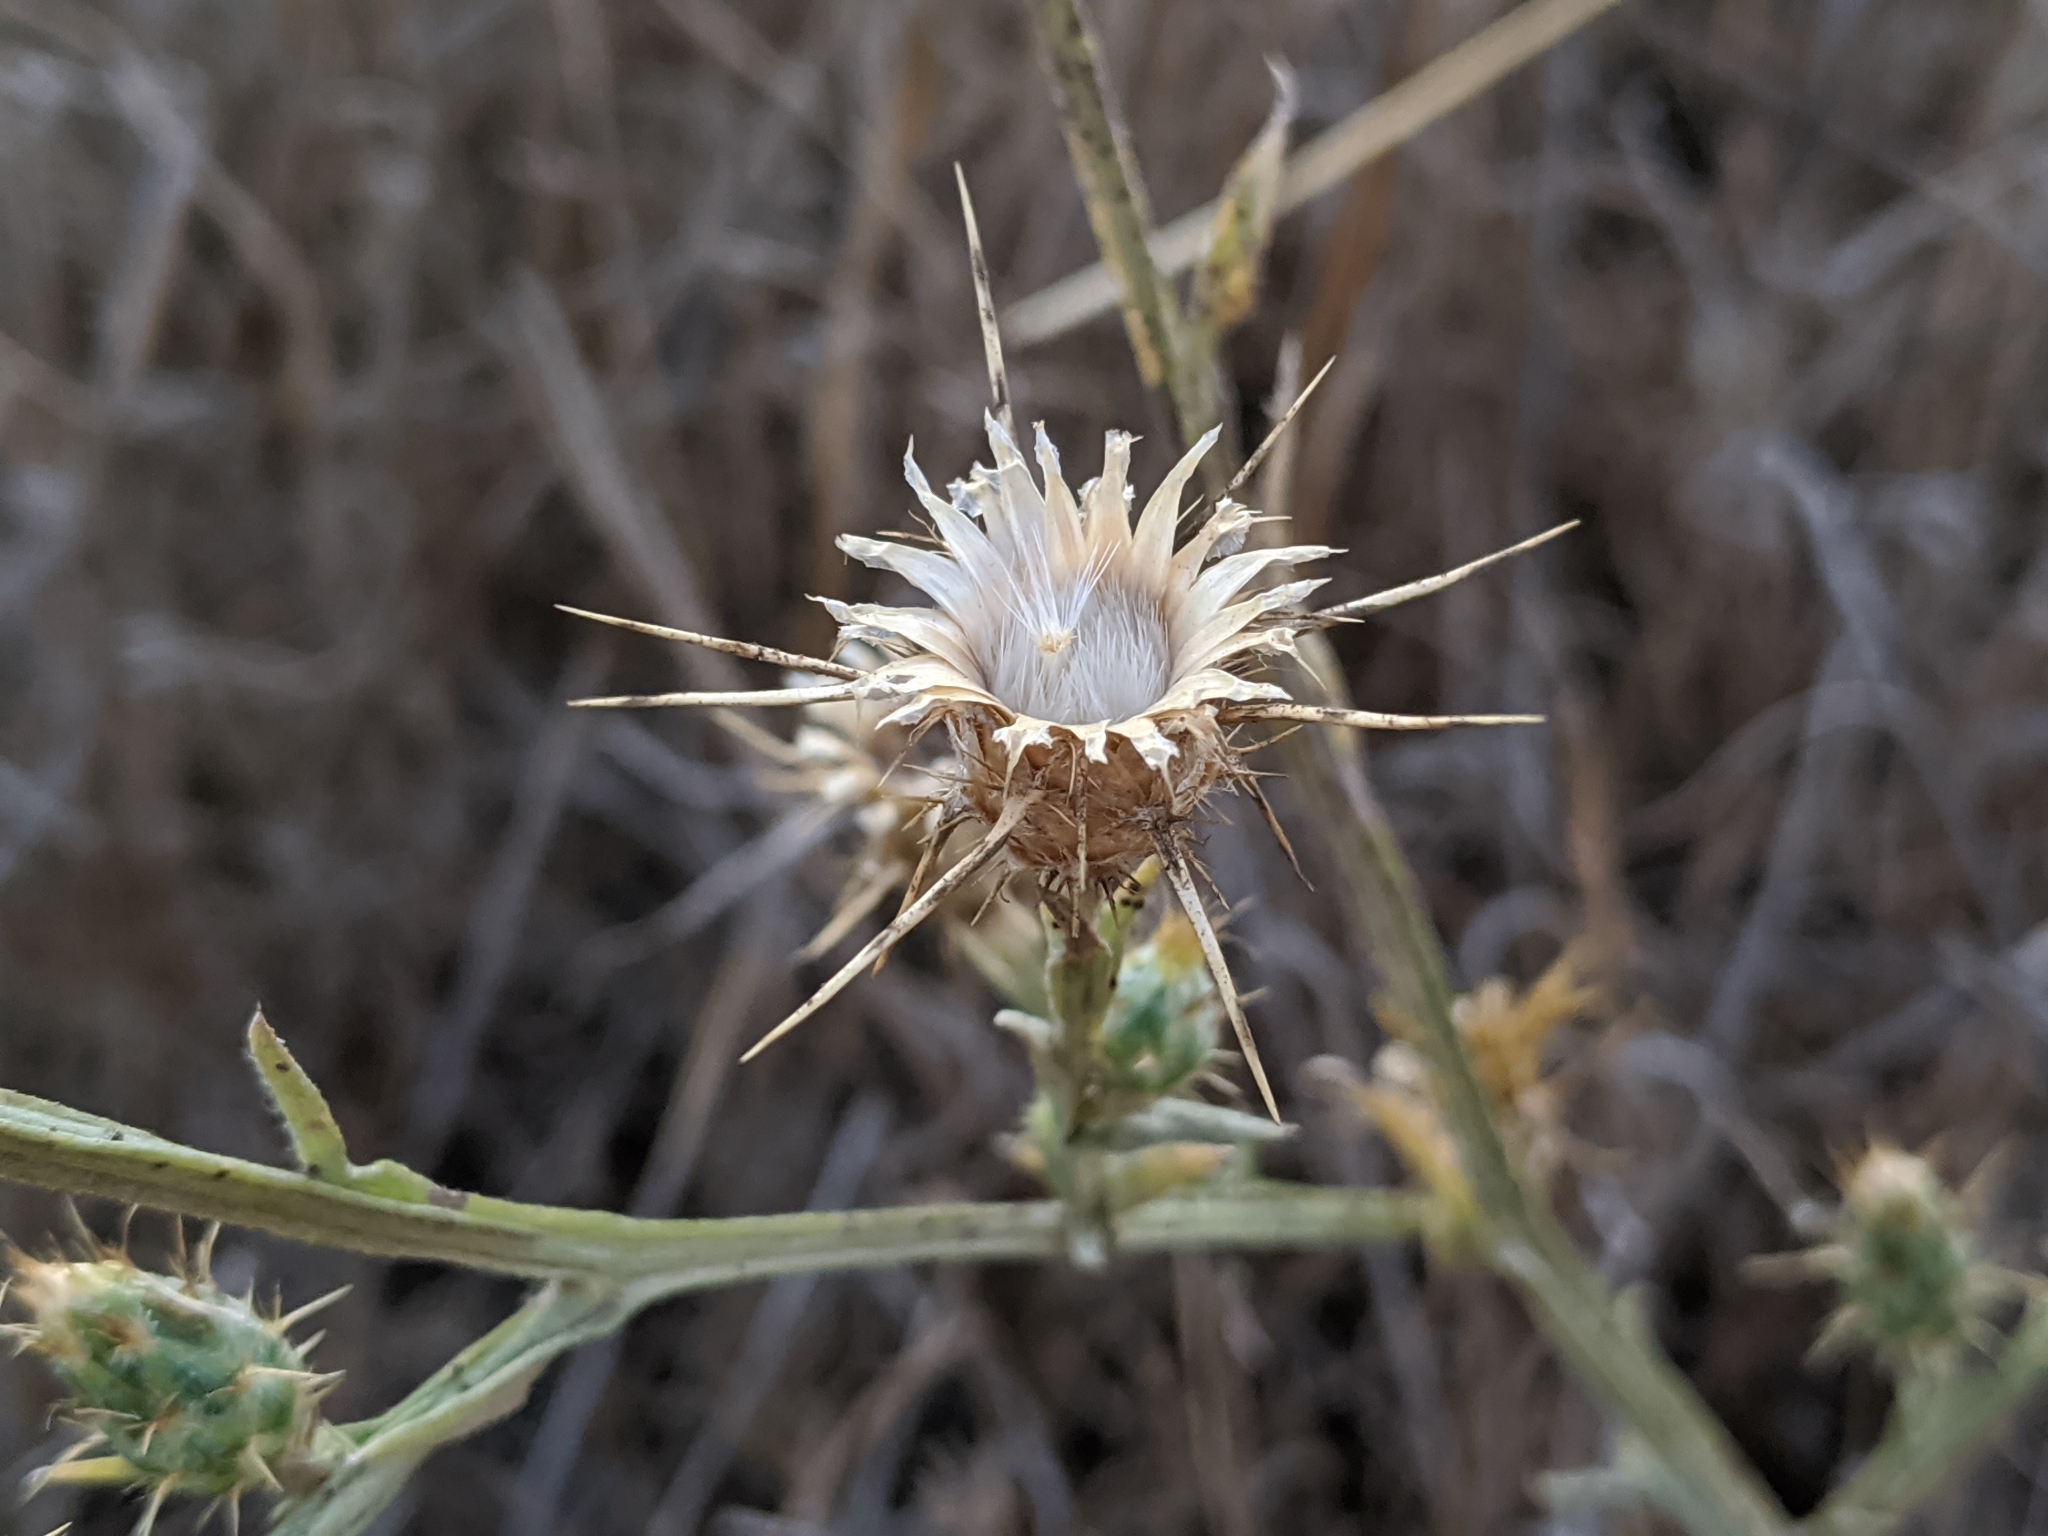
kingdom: Plantae
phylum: Tracheophyta
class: Magnoliopsida
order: Asterales
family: Asteraceae
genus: Centaurea
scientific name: Centaurea solstitialis
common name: Yellow star-thistle
